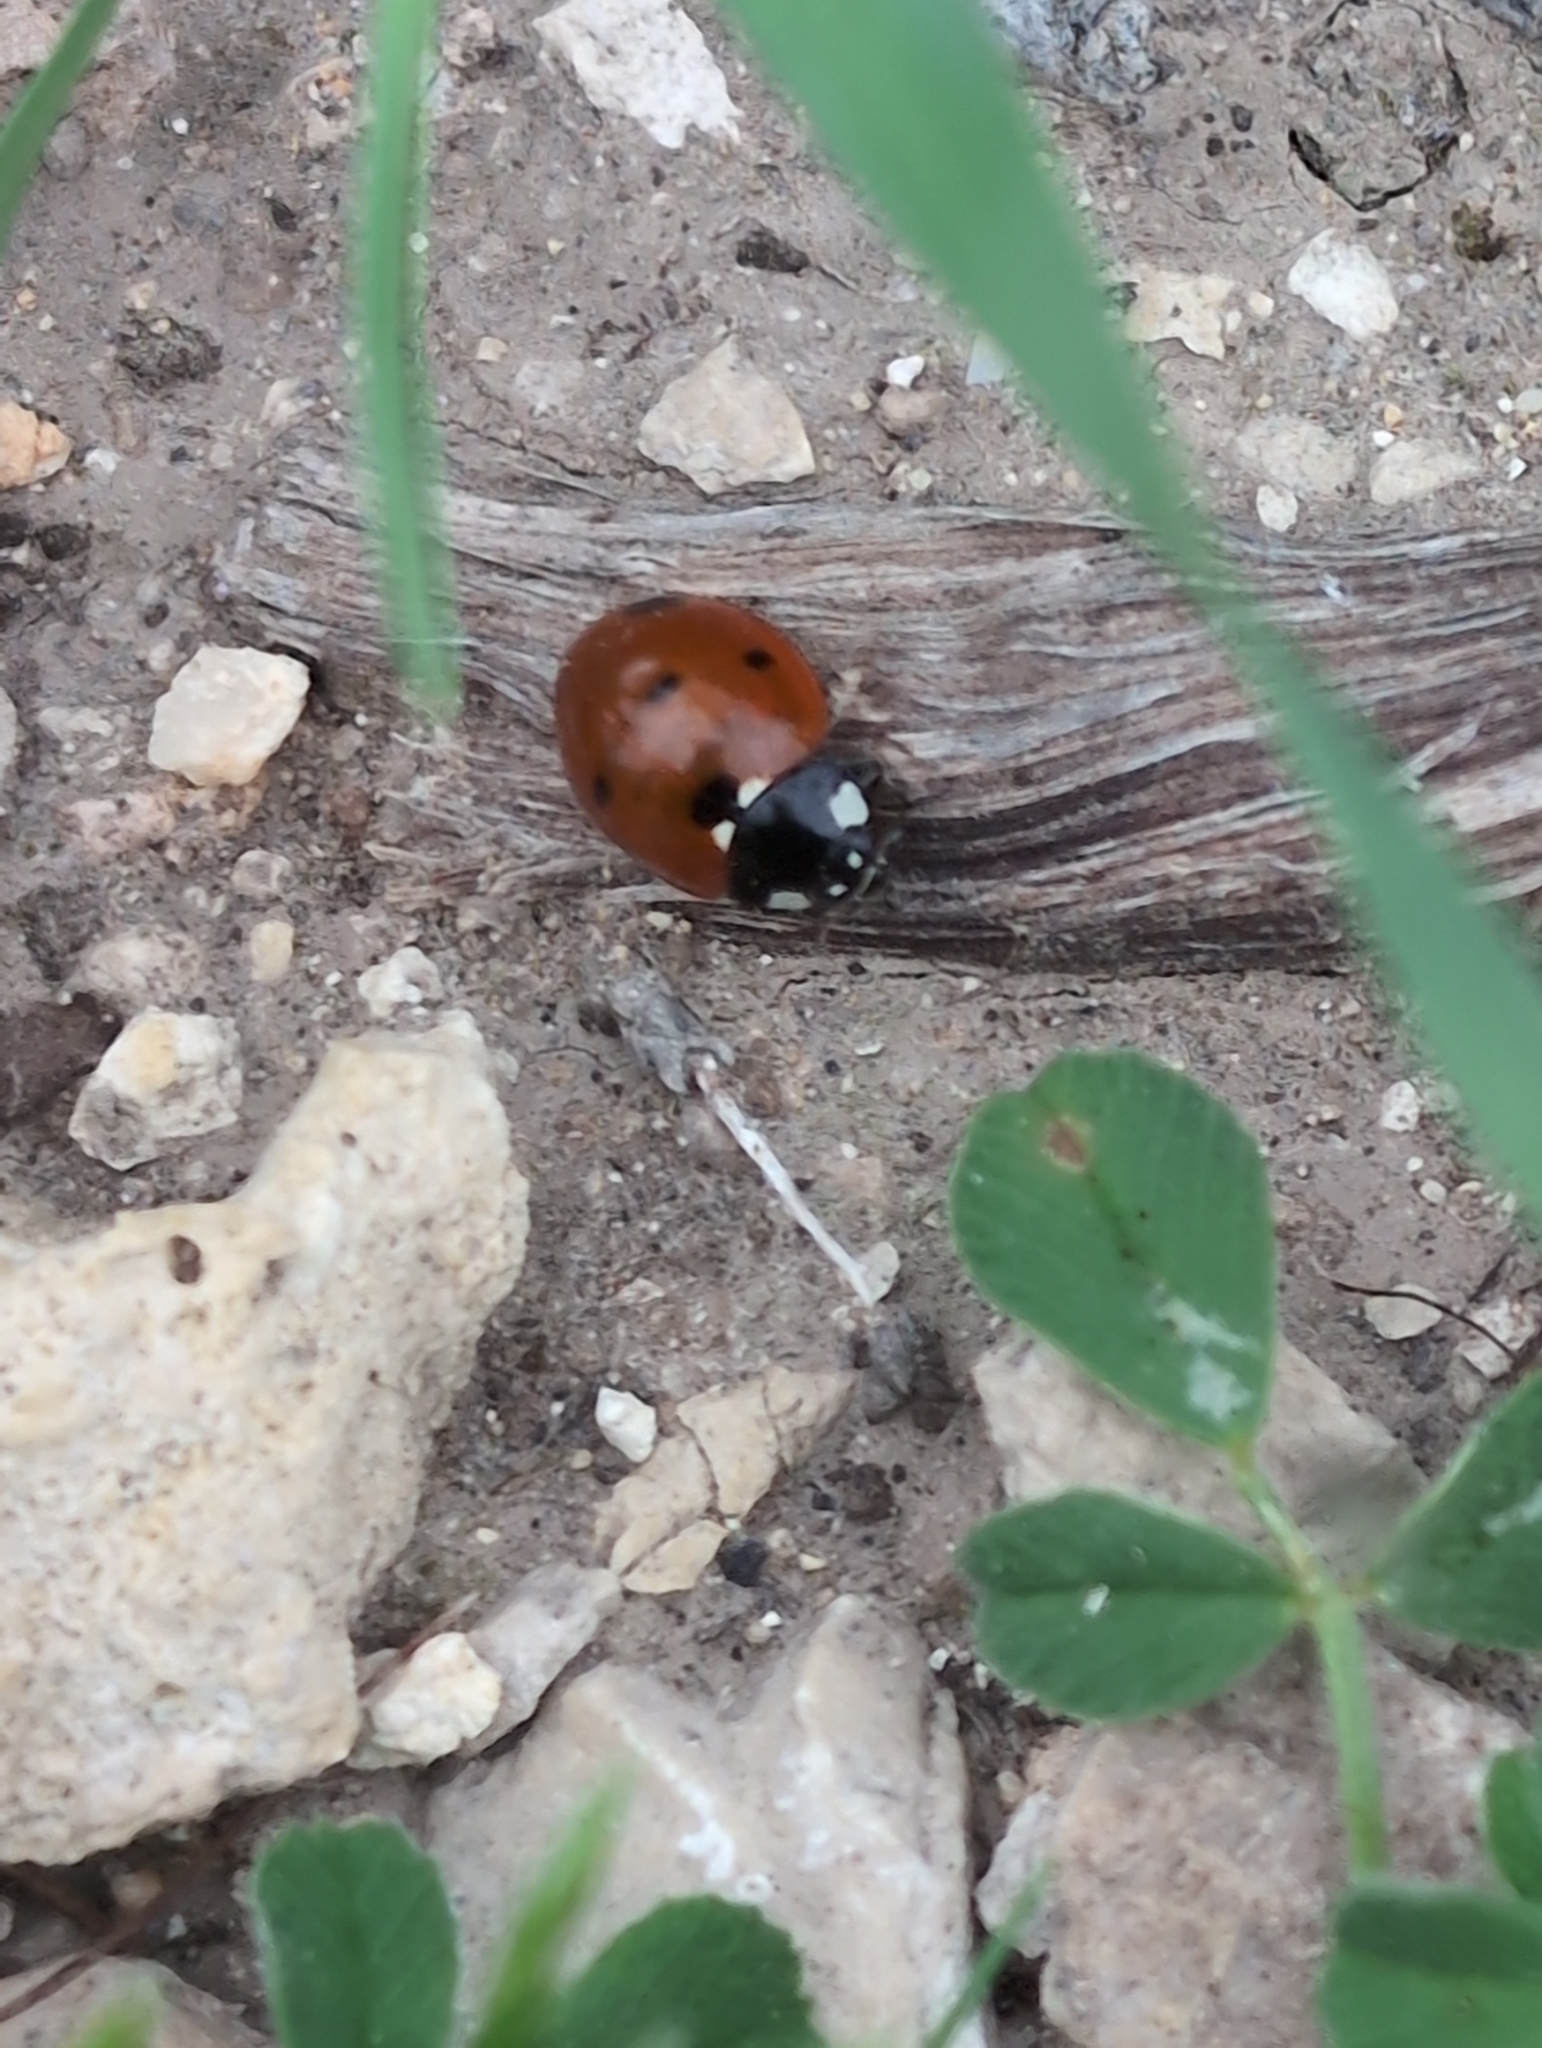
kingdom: Animalia
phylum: Arthropoda
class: Insecta
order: Coleoptera
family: Coccinellidae
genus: Coccinella
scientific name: Coccinella septempunctata
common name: Sevenspotted lady beetle
